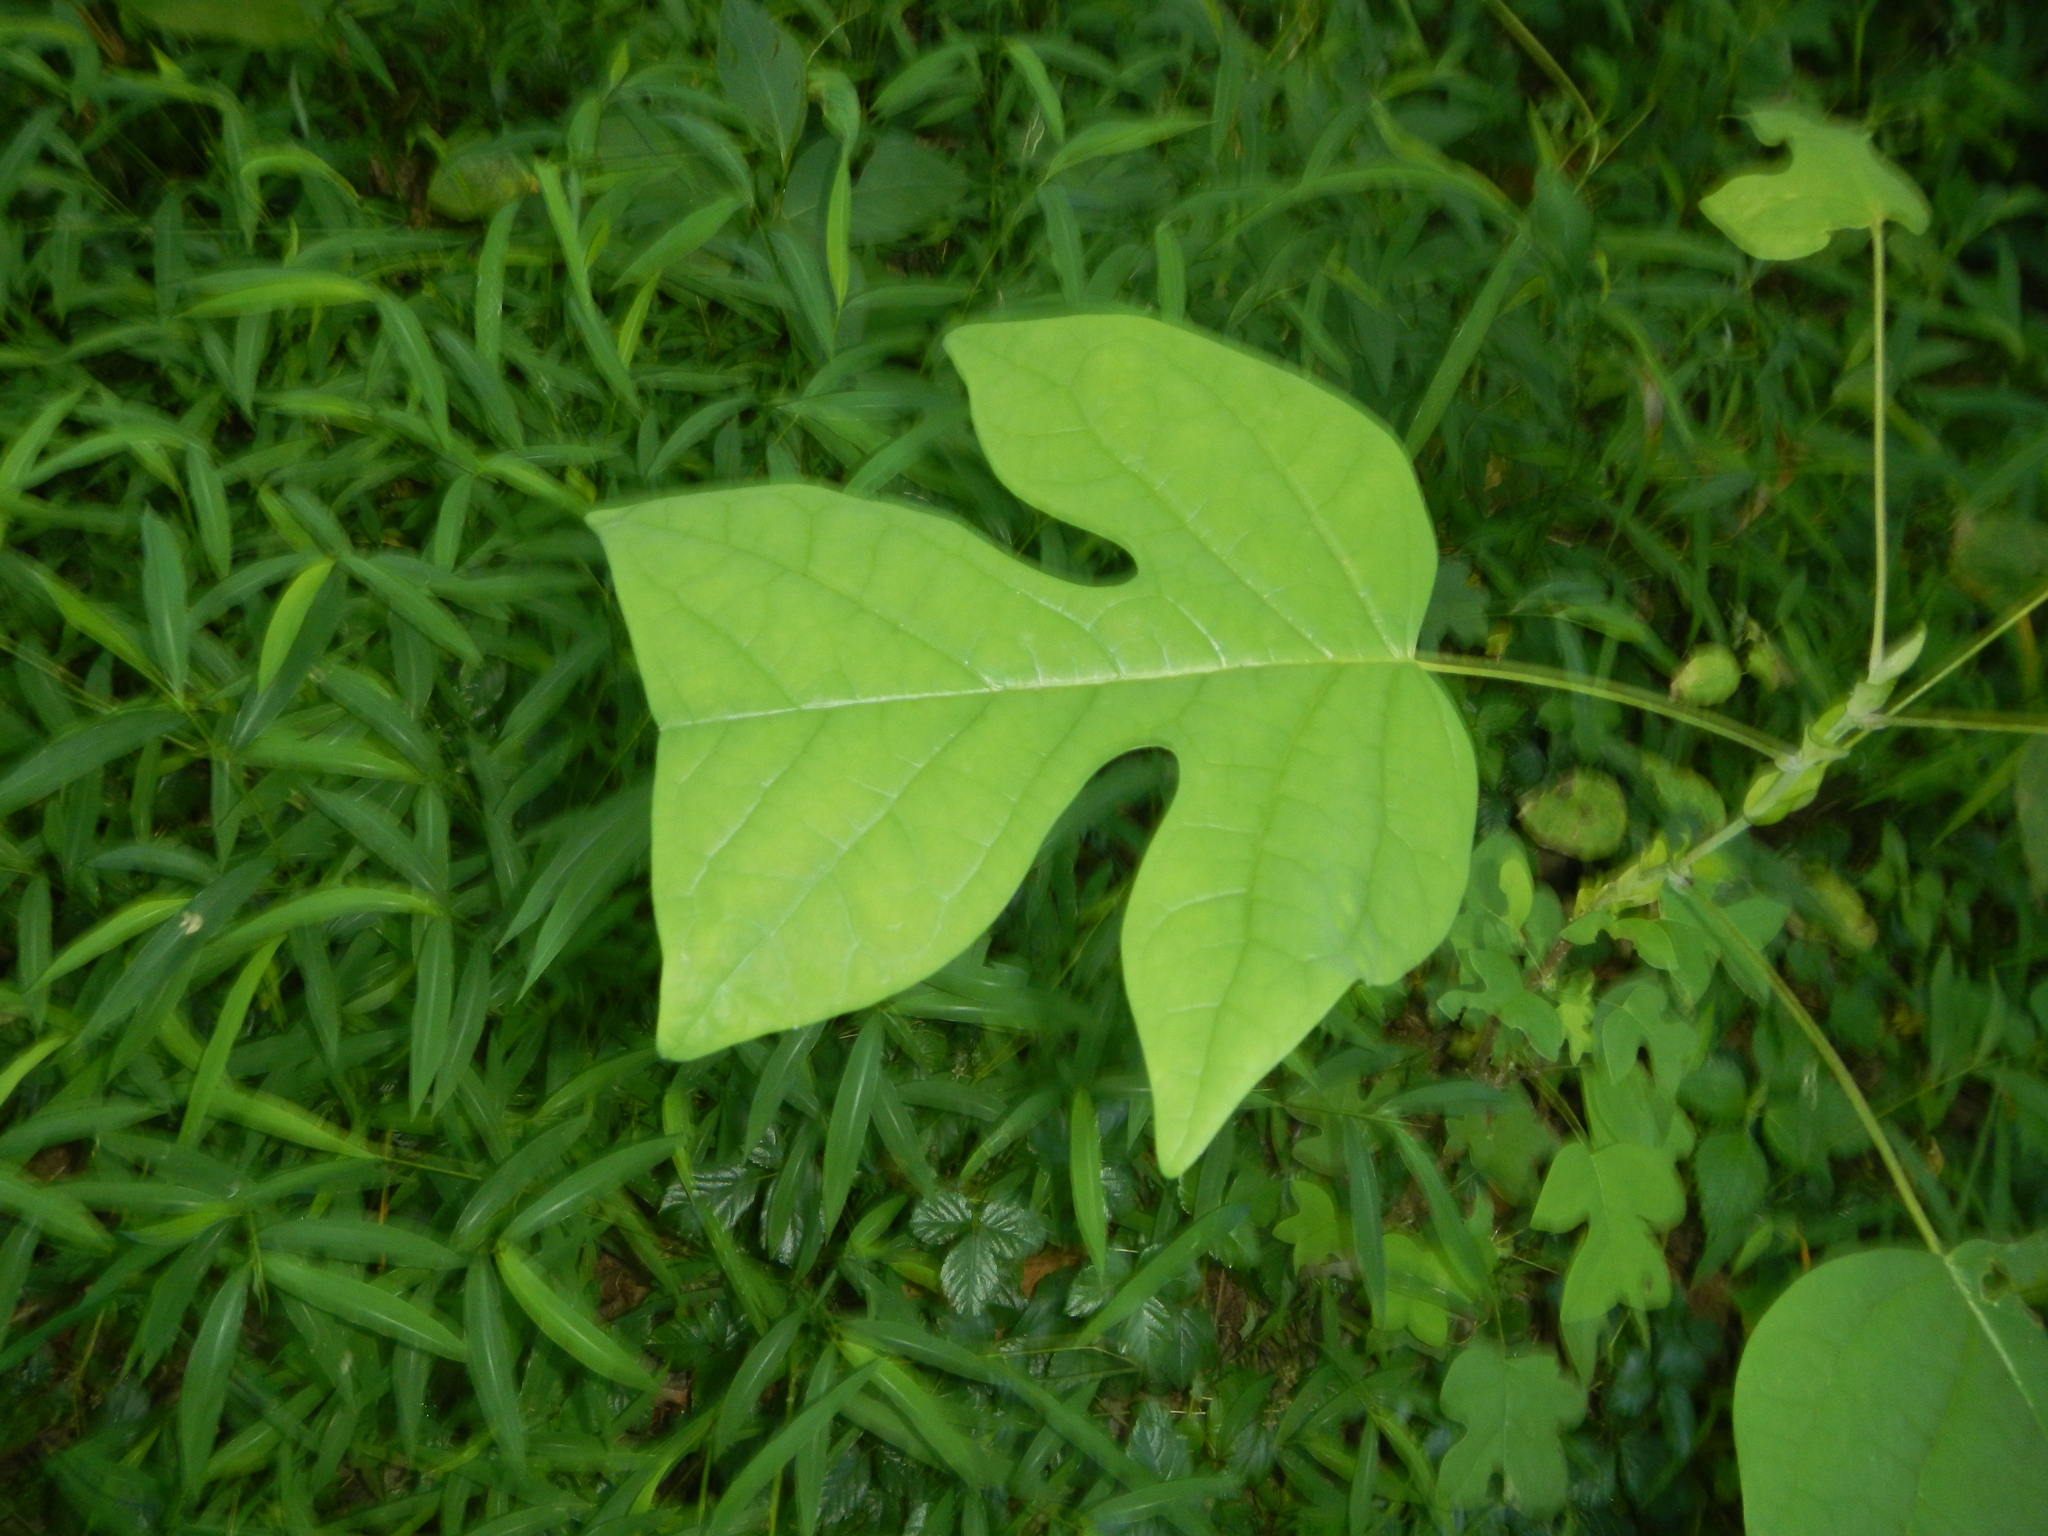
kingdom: Plantae
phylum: Tracheophyta
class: Magnoliopsida
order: Magnoliales
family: Magnoliaceae
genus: Liriodendron
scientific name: Liriodendron tulipifera
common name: Tulip tree
